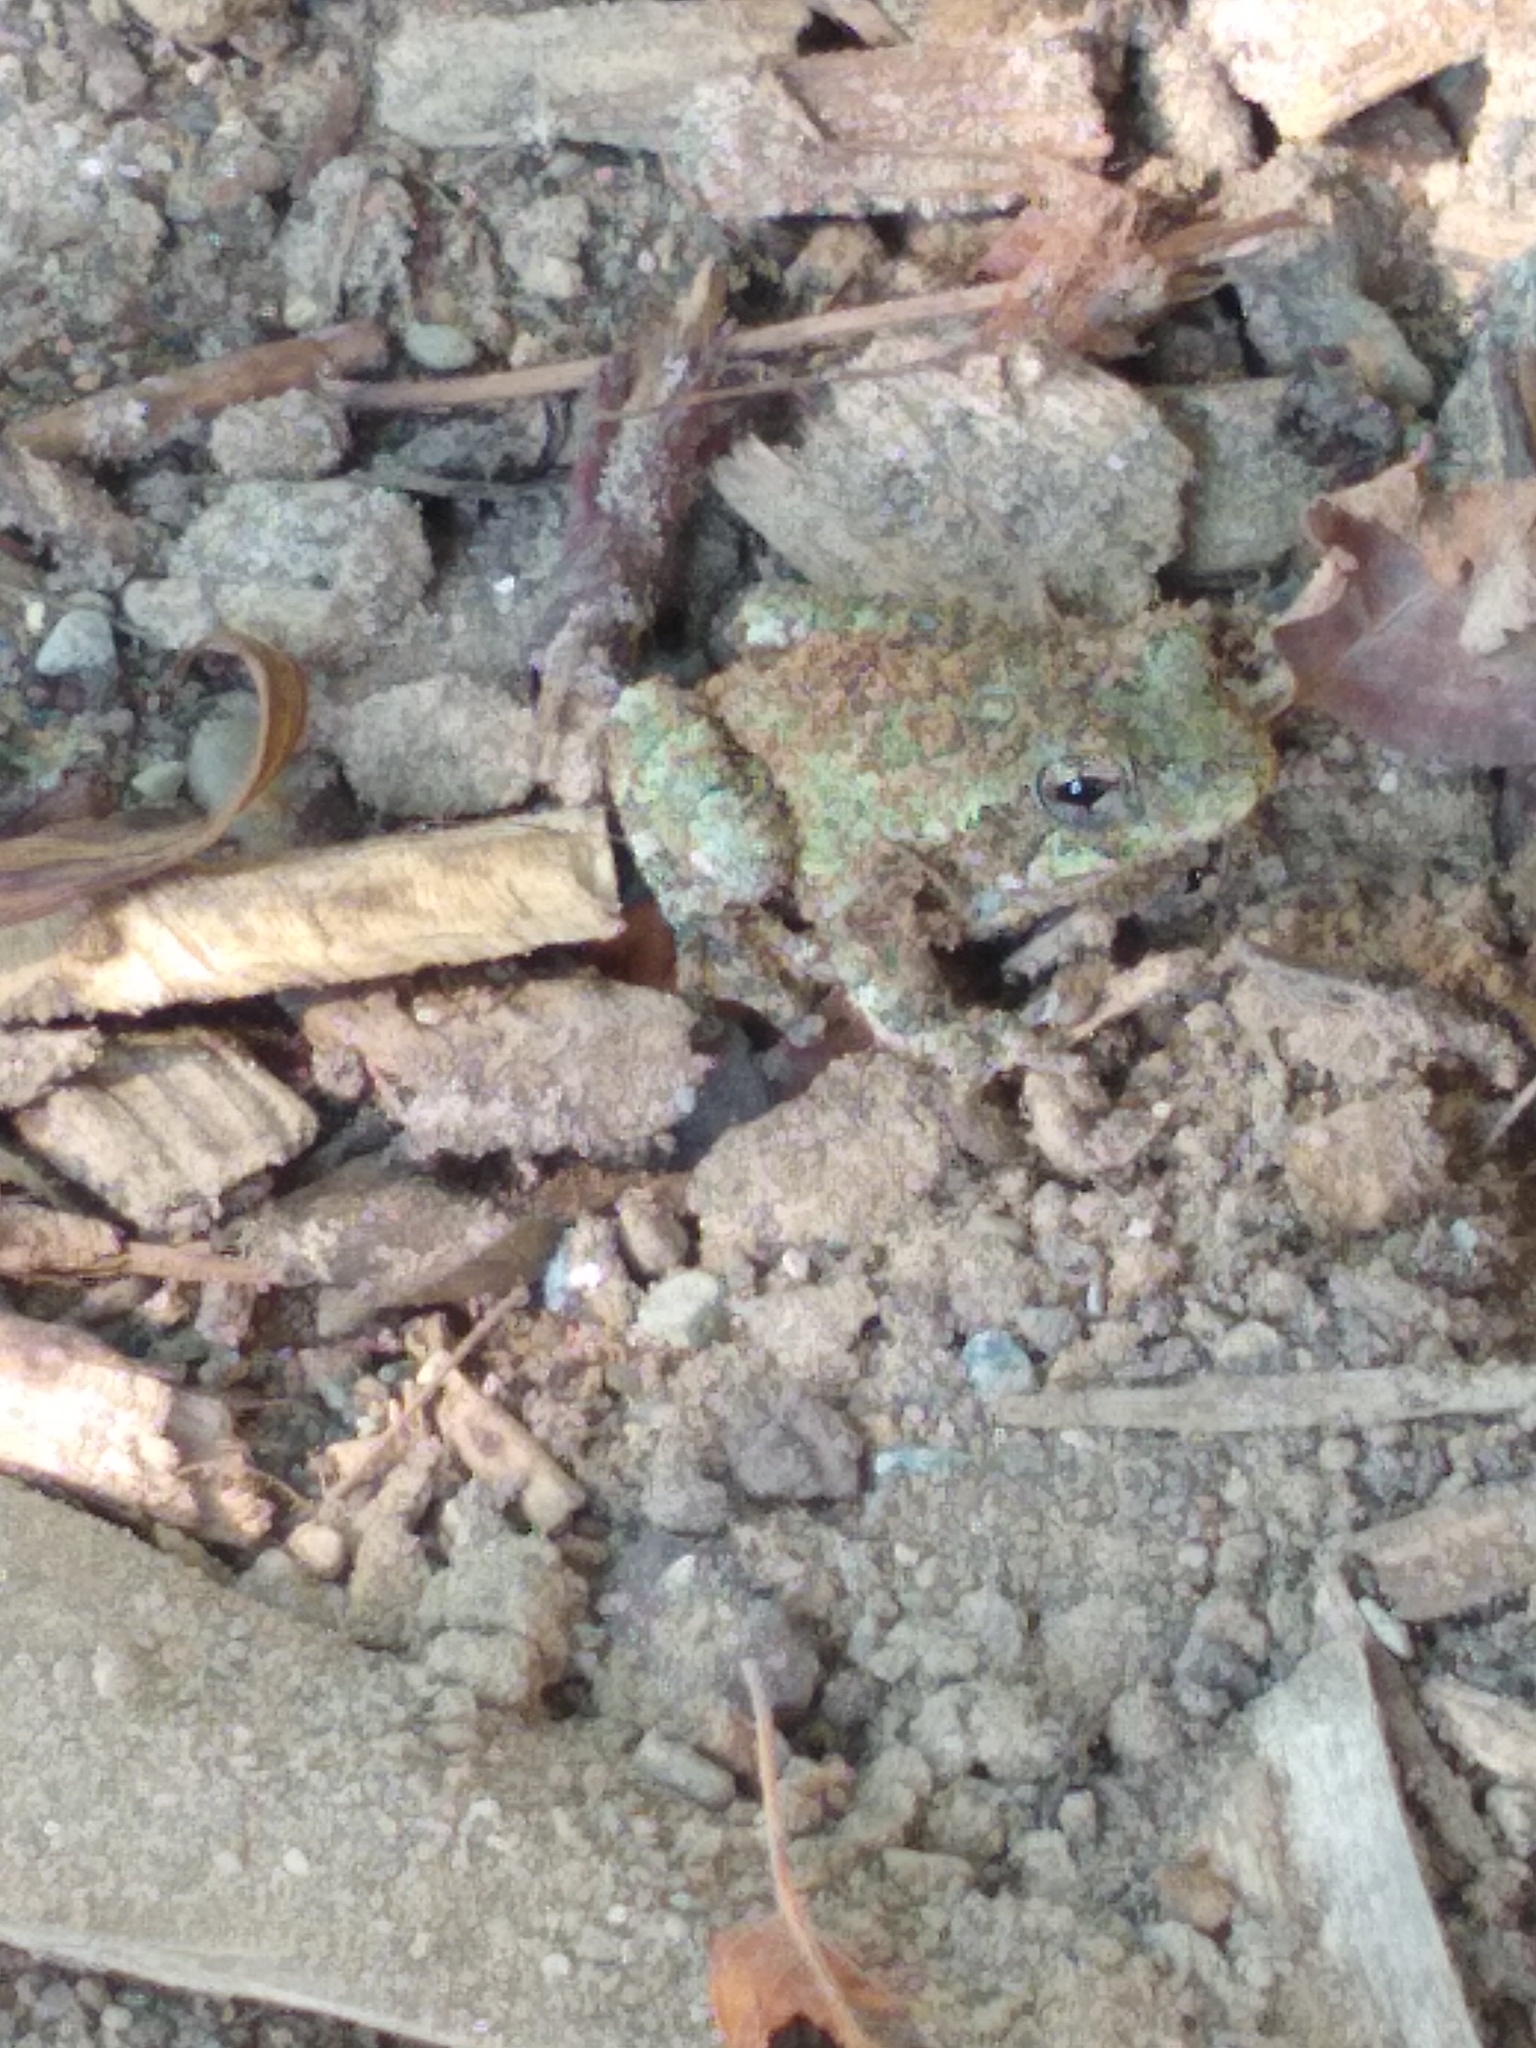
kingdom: Animalia
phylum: Chordata
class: Amphibia
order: Anura
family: Hylidae
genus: Hyla
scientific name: Hyla
